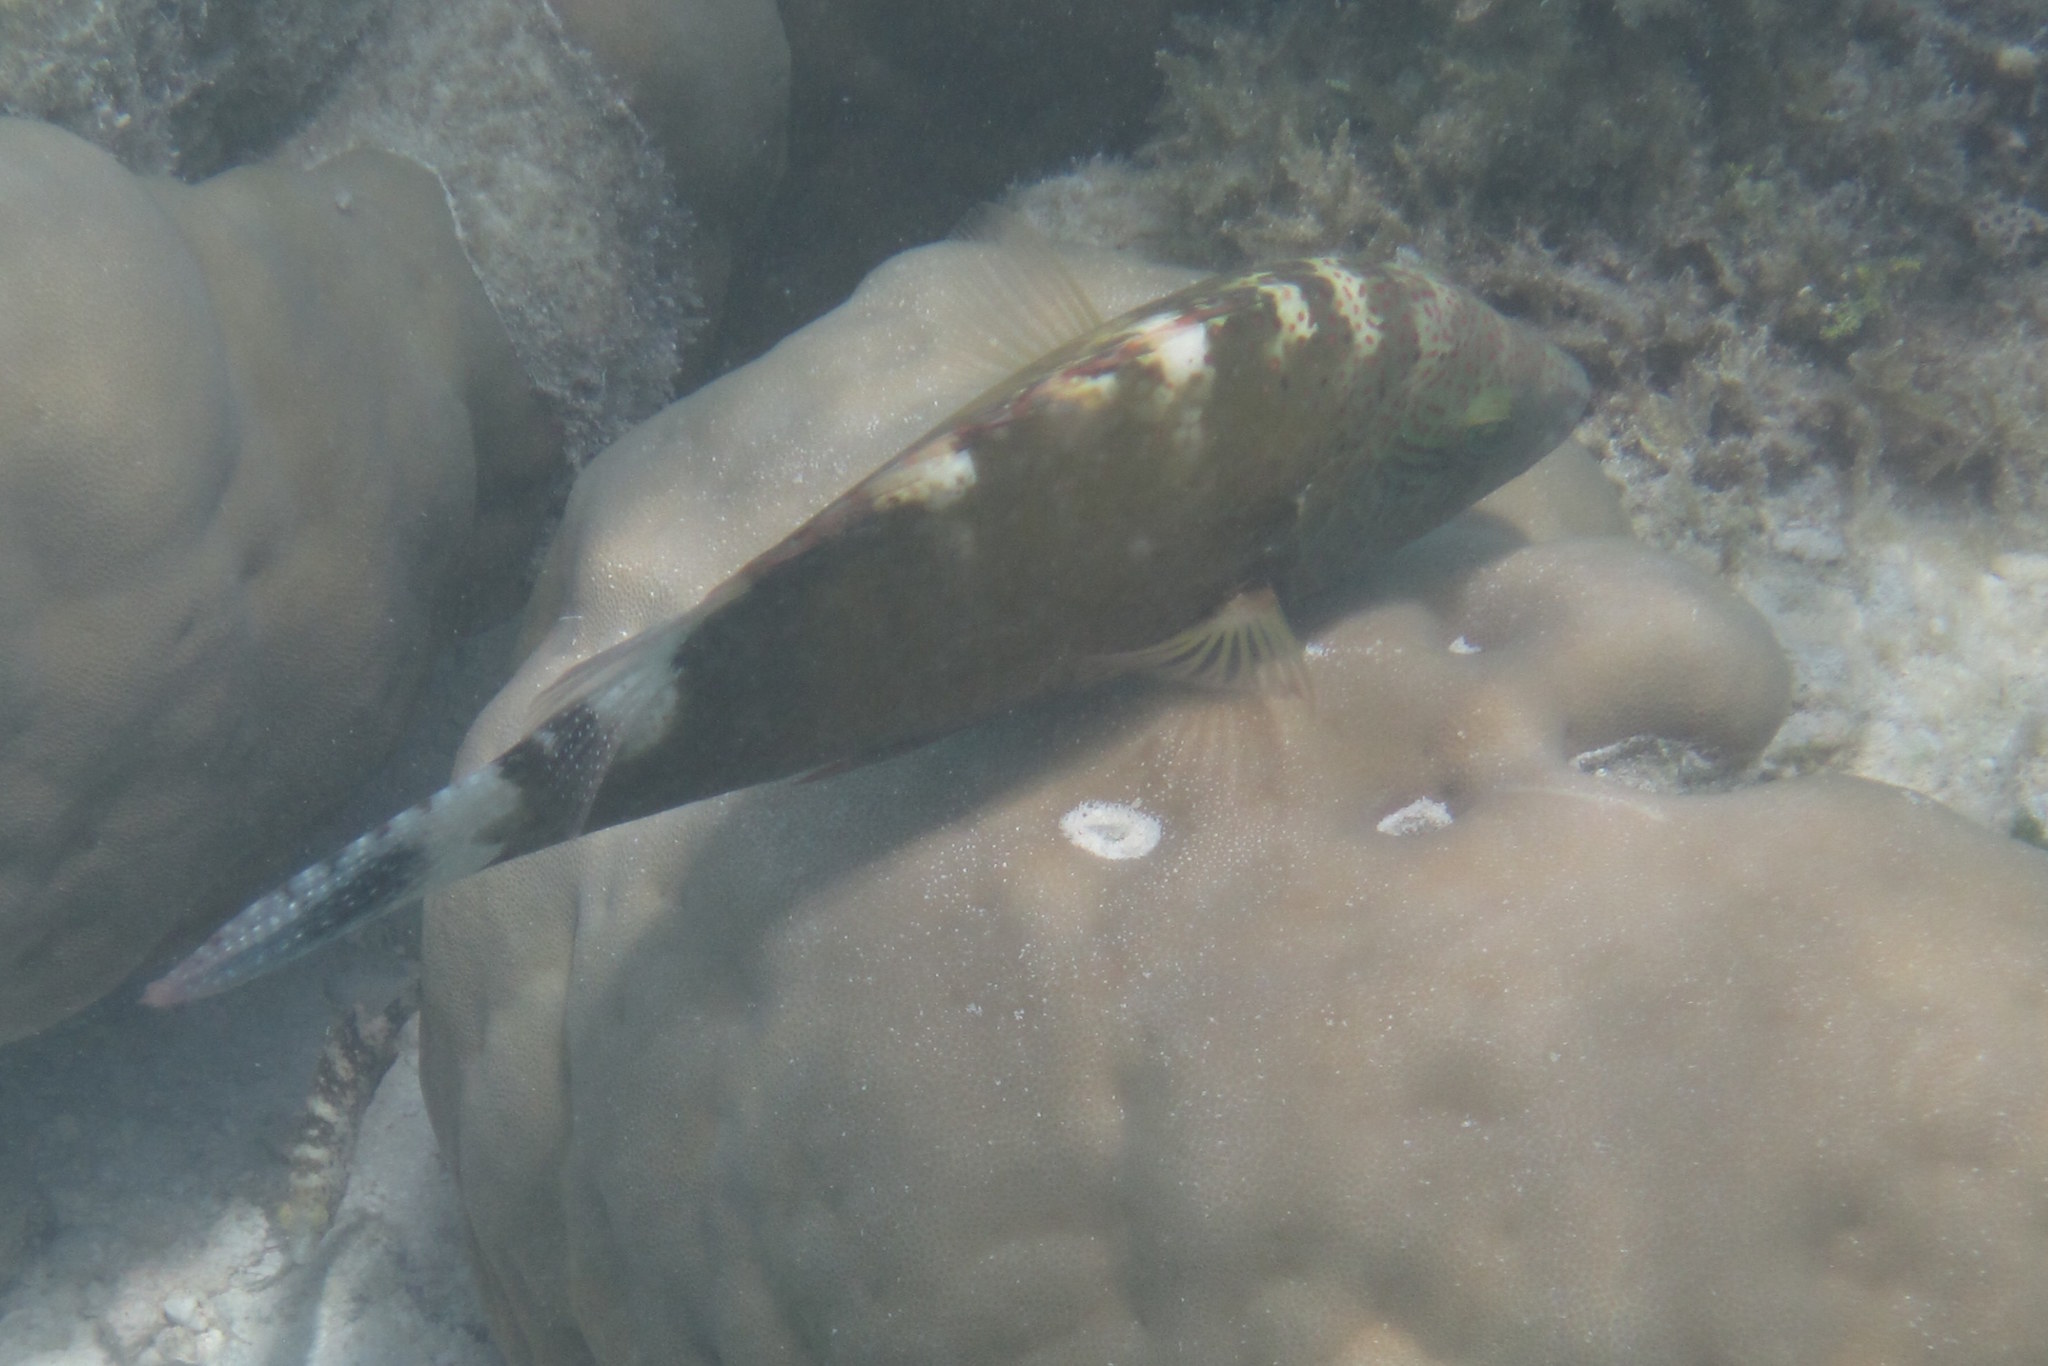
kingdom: Animalia
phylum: Chordata
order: Perciformes
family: Labridae
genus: Cheilinus
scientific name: Cheilinus chlorourus
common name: Floral wrasse
